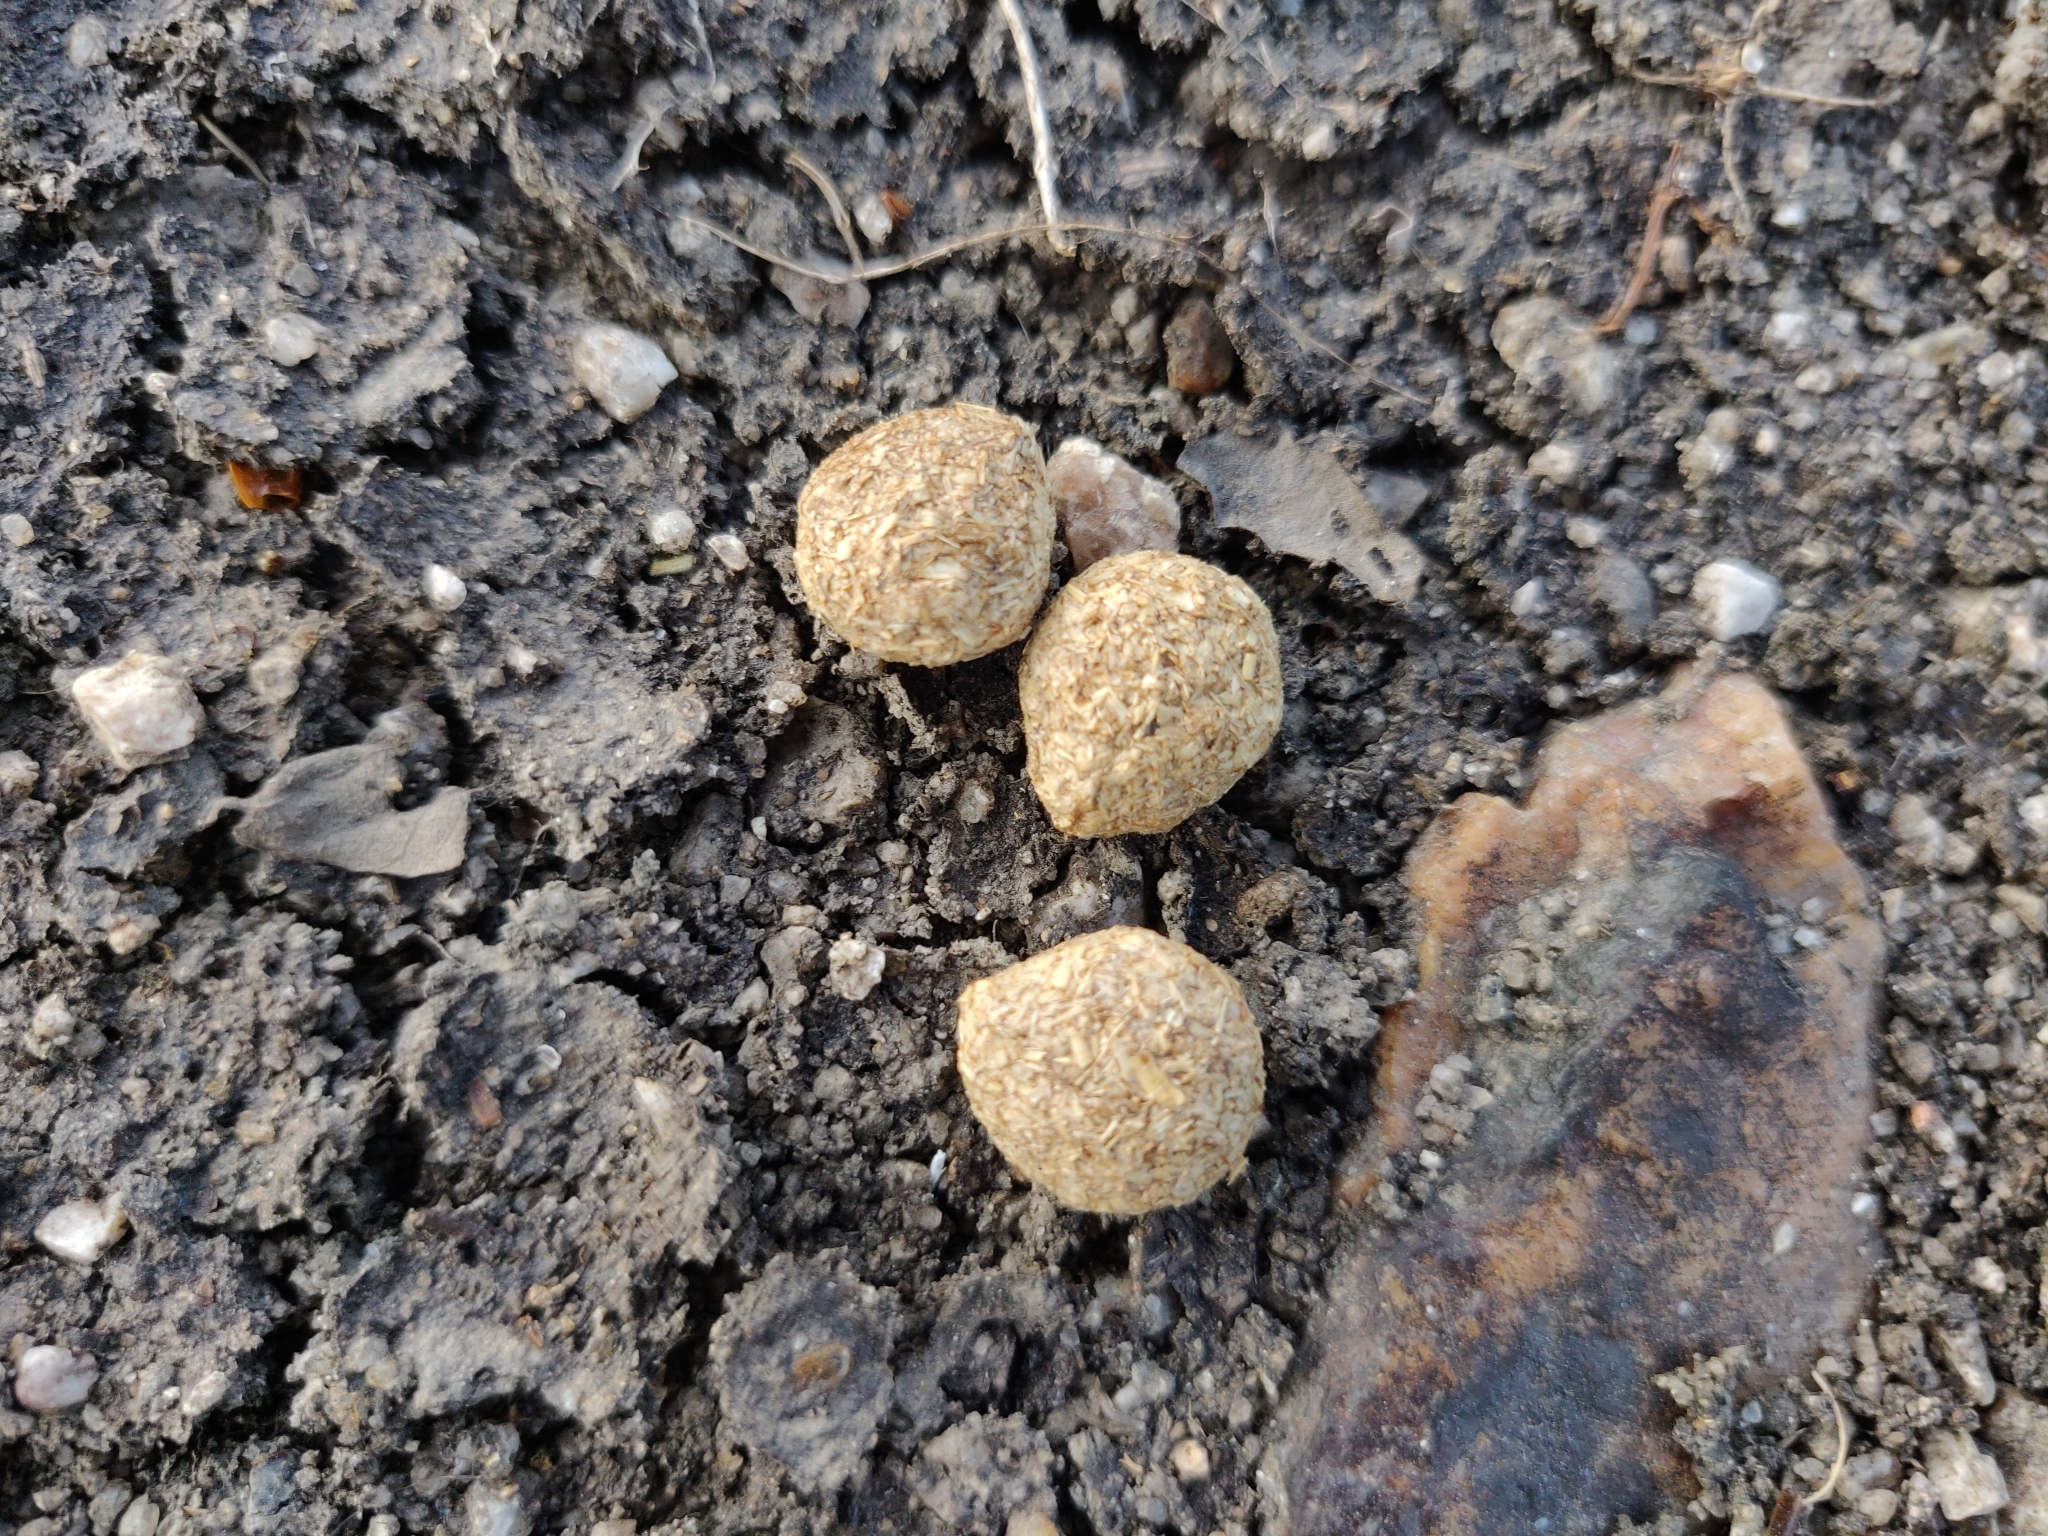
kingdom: Animalia
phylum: Chordata
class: Mammalia
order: Lagomorpha
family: Leporidae
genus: Lepus
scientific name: Lepus nigricollis
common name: Indian hare
